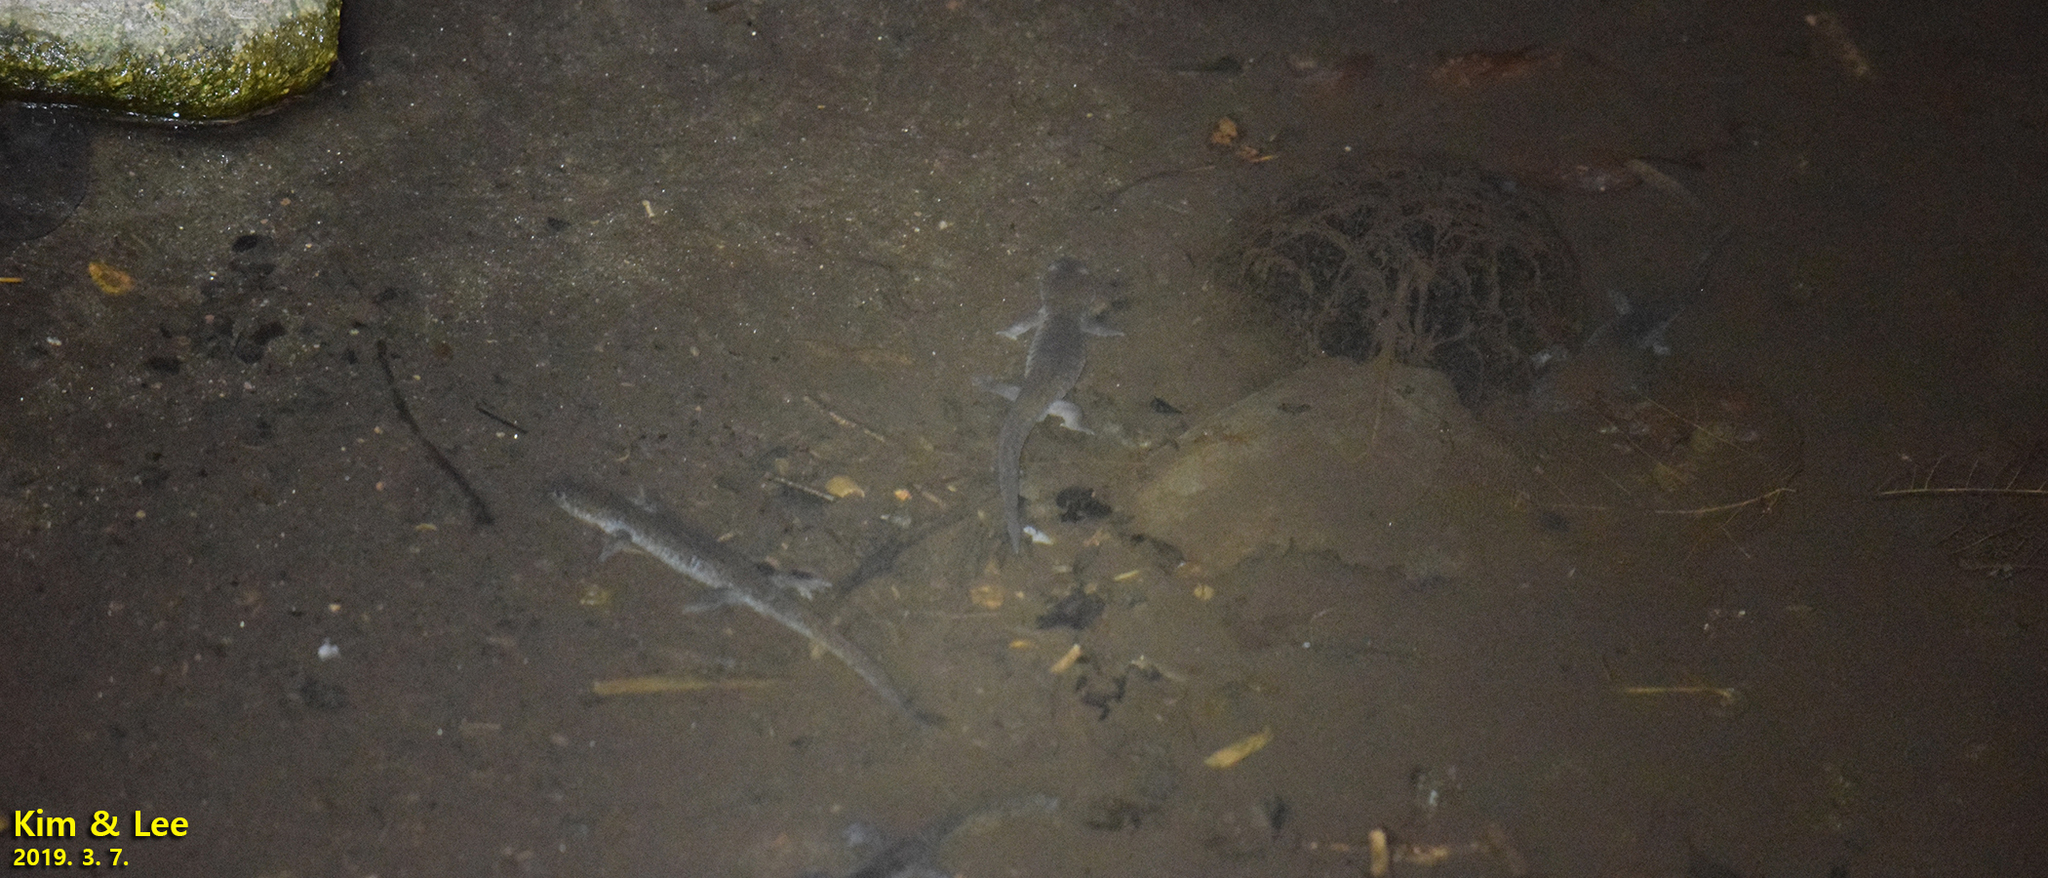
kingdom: Animalia
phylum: Chordata
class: Amphibia
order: Caudata
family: Hynobiidae
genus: Hynobius
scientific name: Hynobius leechii
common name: Gensan salamander
